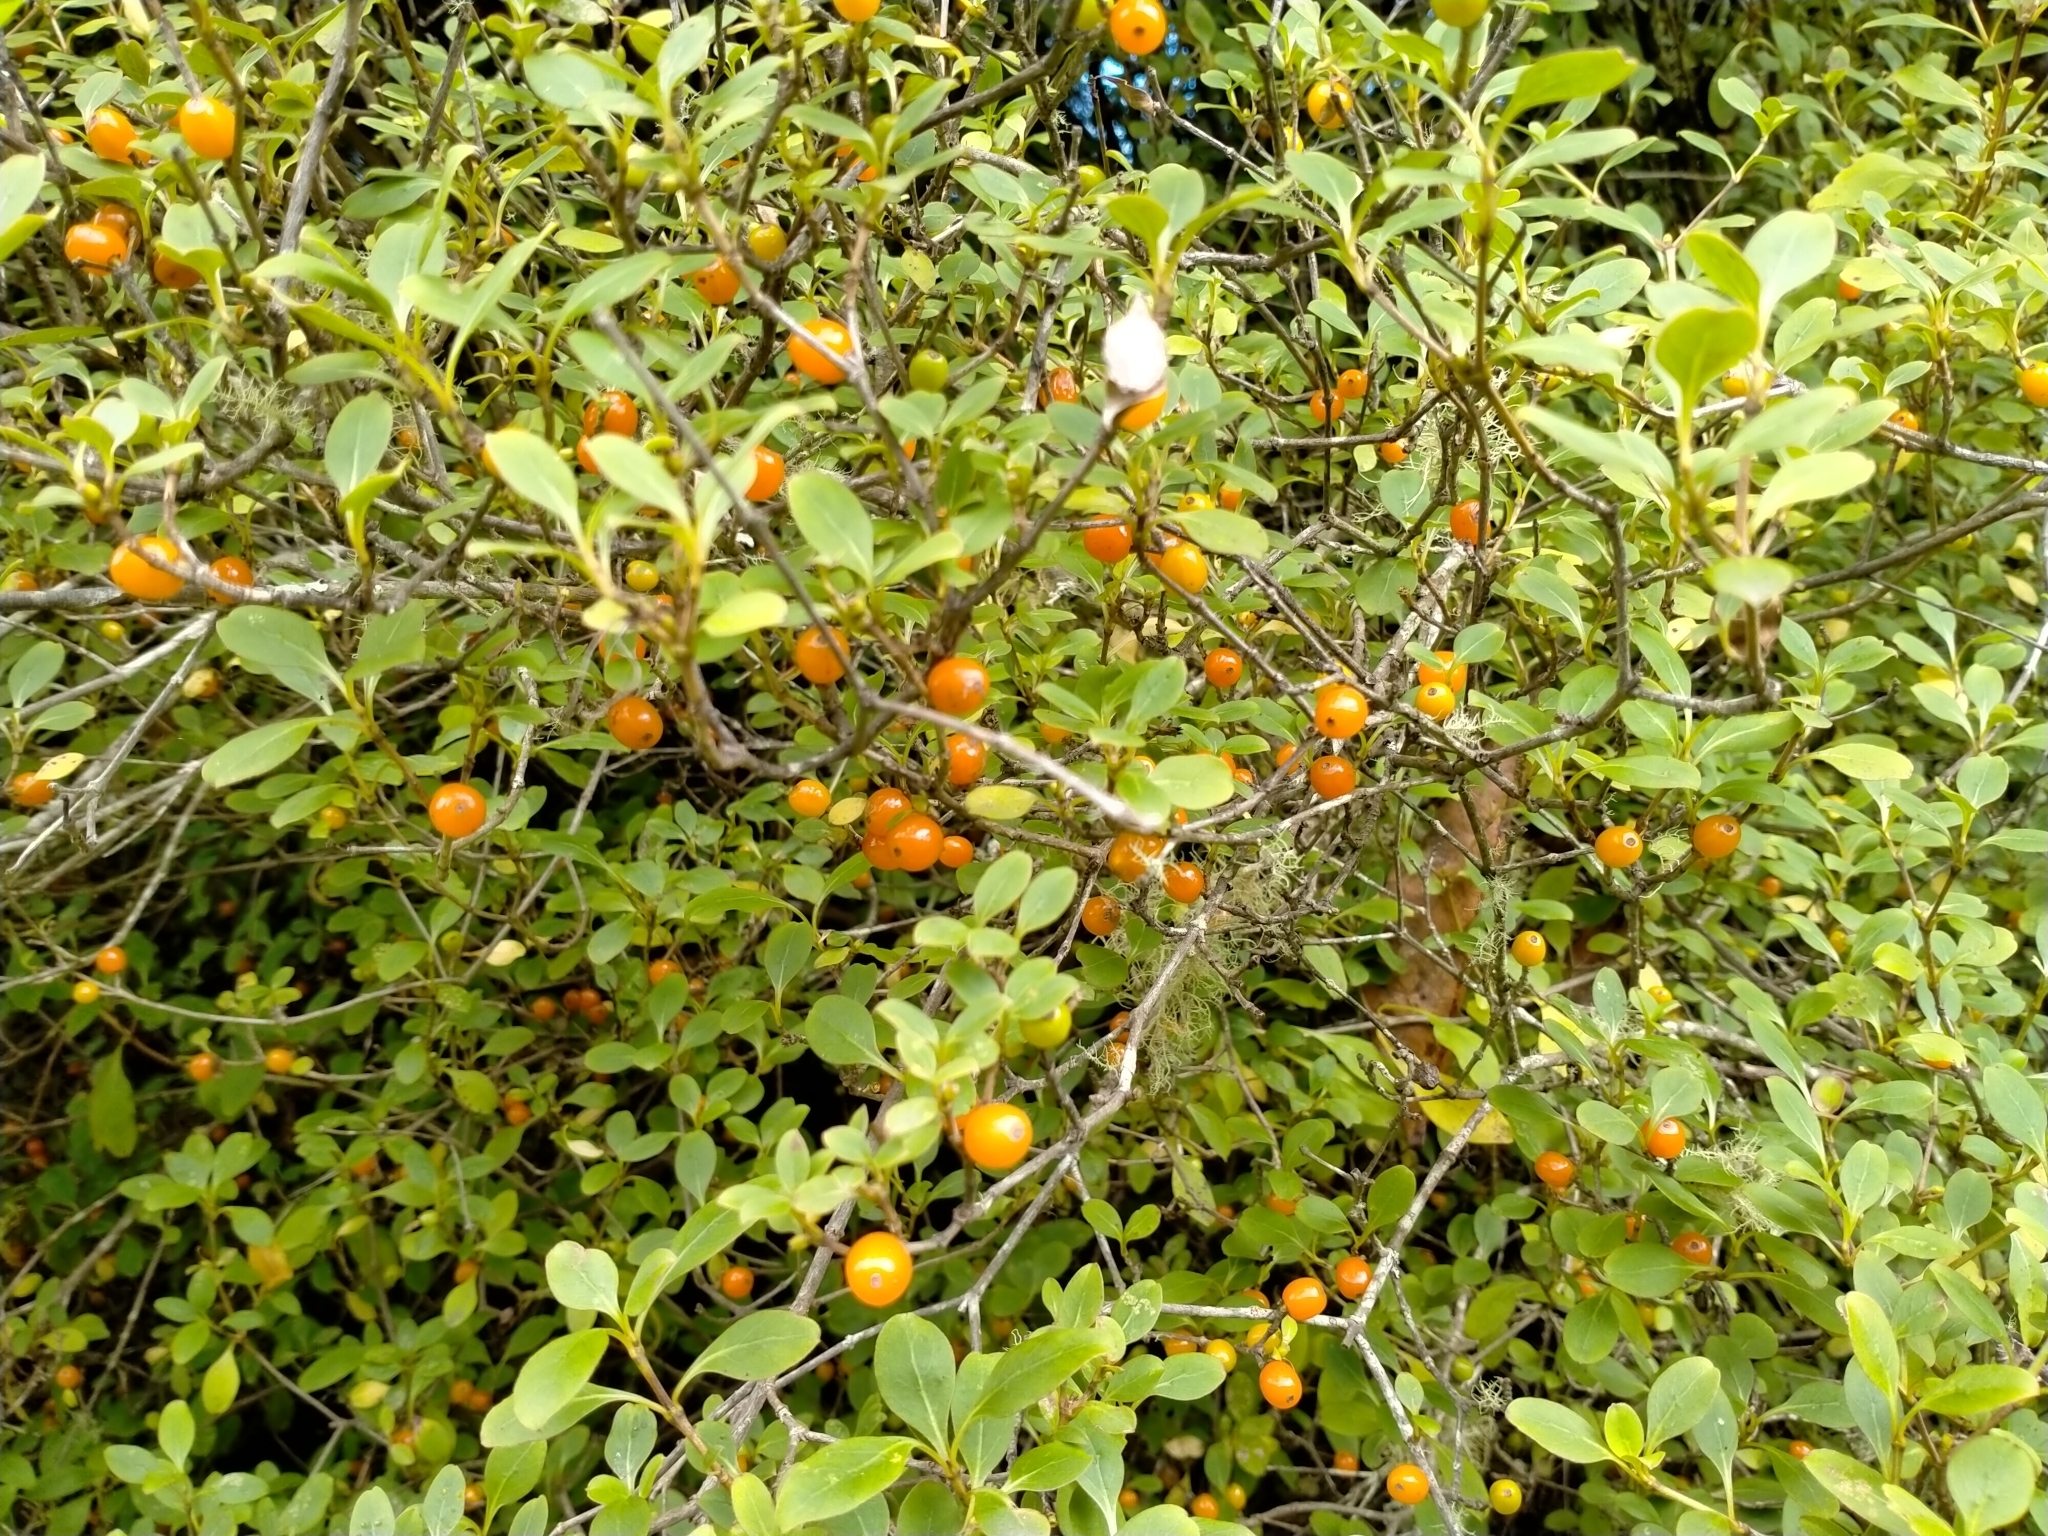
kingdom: Plantae
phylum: Tracheophyta
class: Magnoliopsida
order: Gentianales
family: Rubiaceae
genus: Coprosma
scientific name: Coprosma foetidissima
